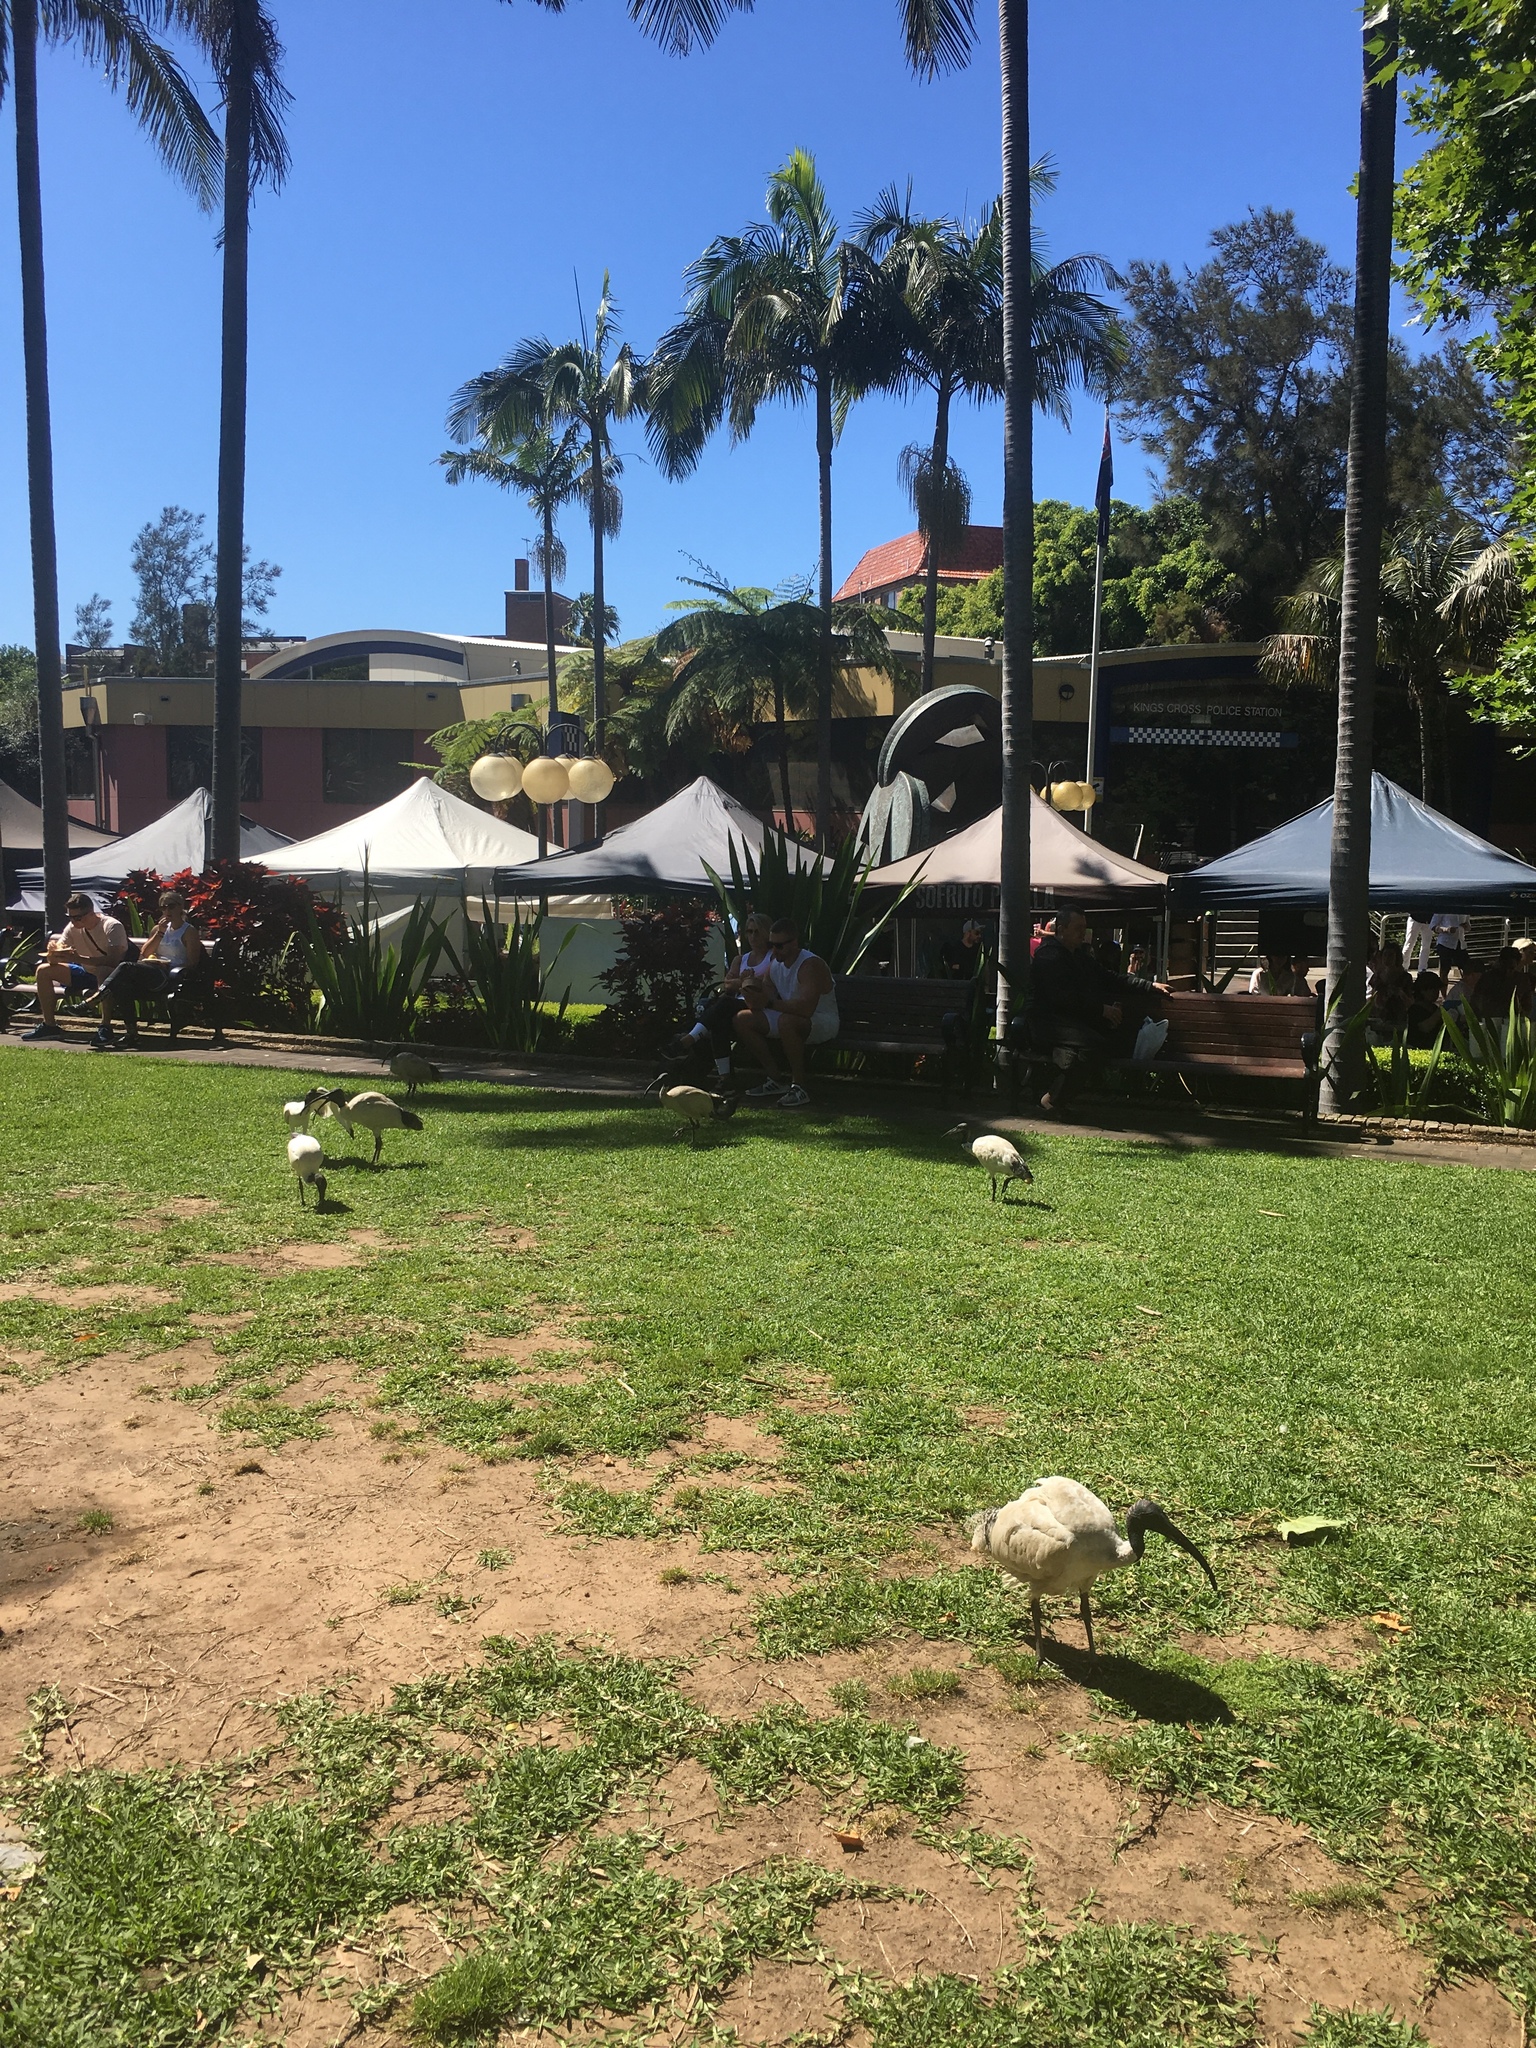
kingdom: Animalia
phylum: Chordata
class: Aves
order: Pelecaniformes
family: Threskiornithidae
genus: Threskiornis
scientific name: Threskiornis molucca
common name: Australian white ibis
